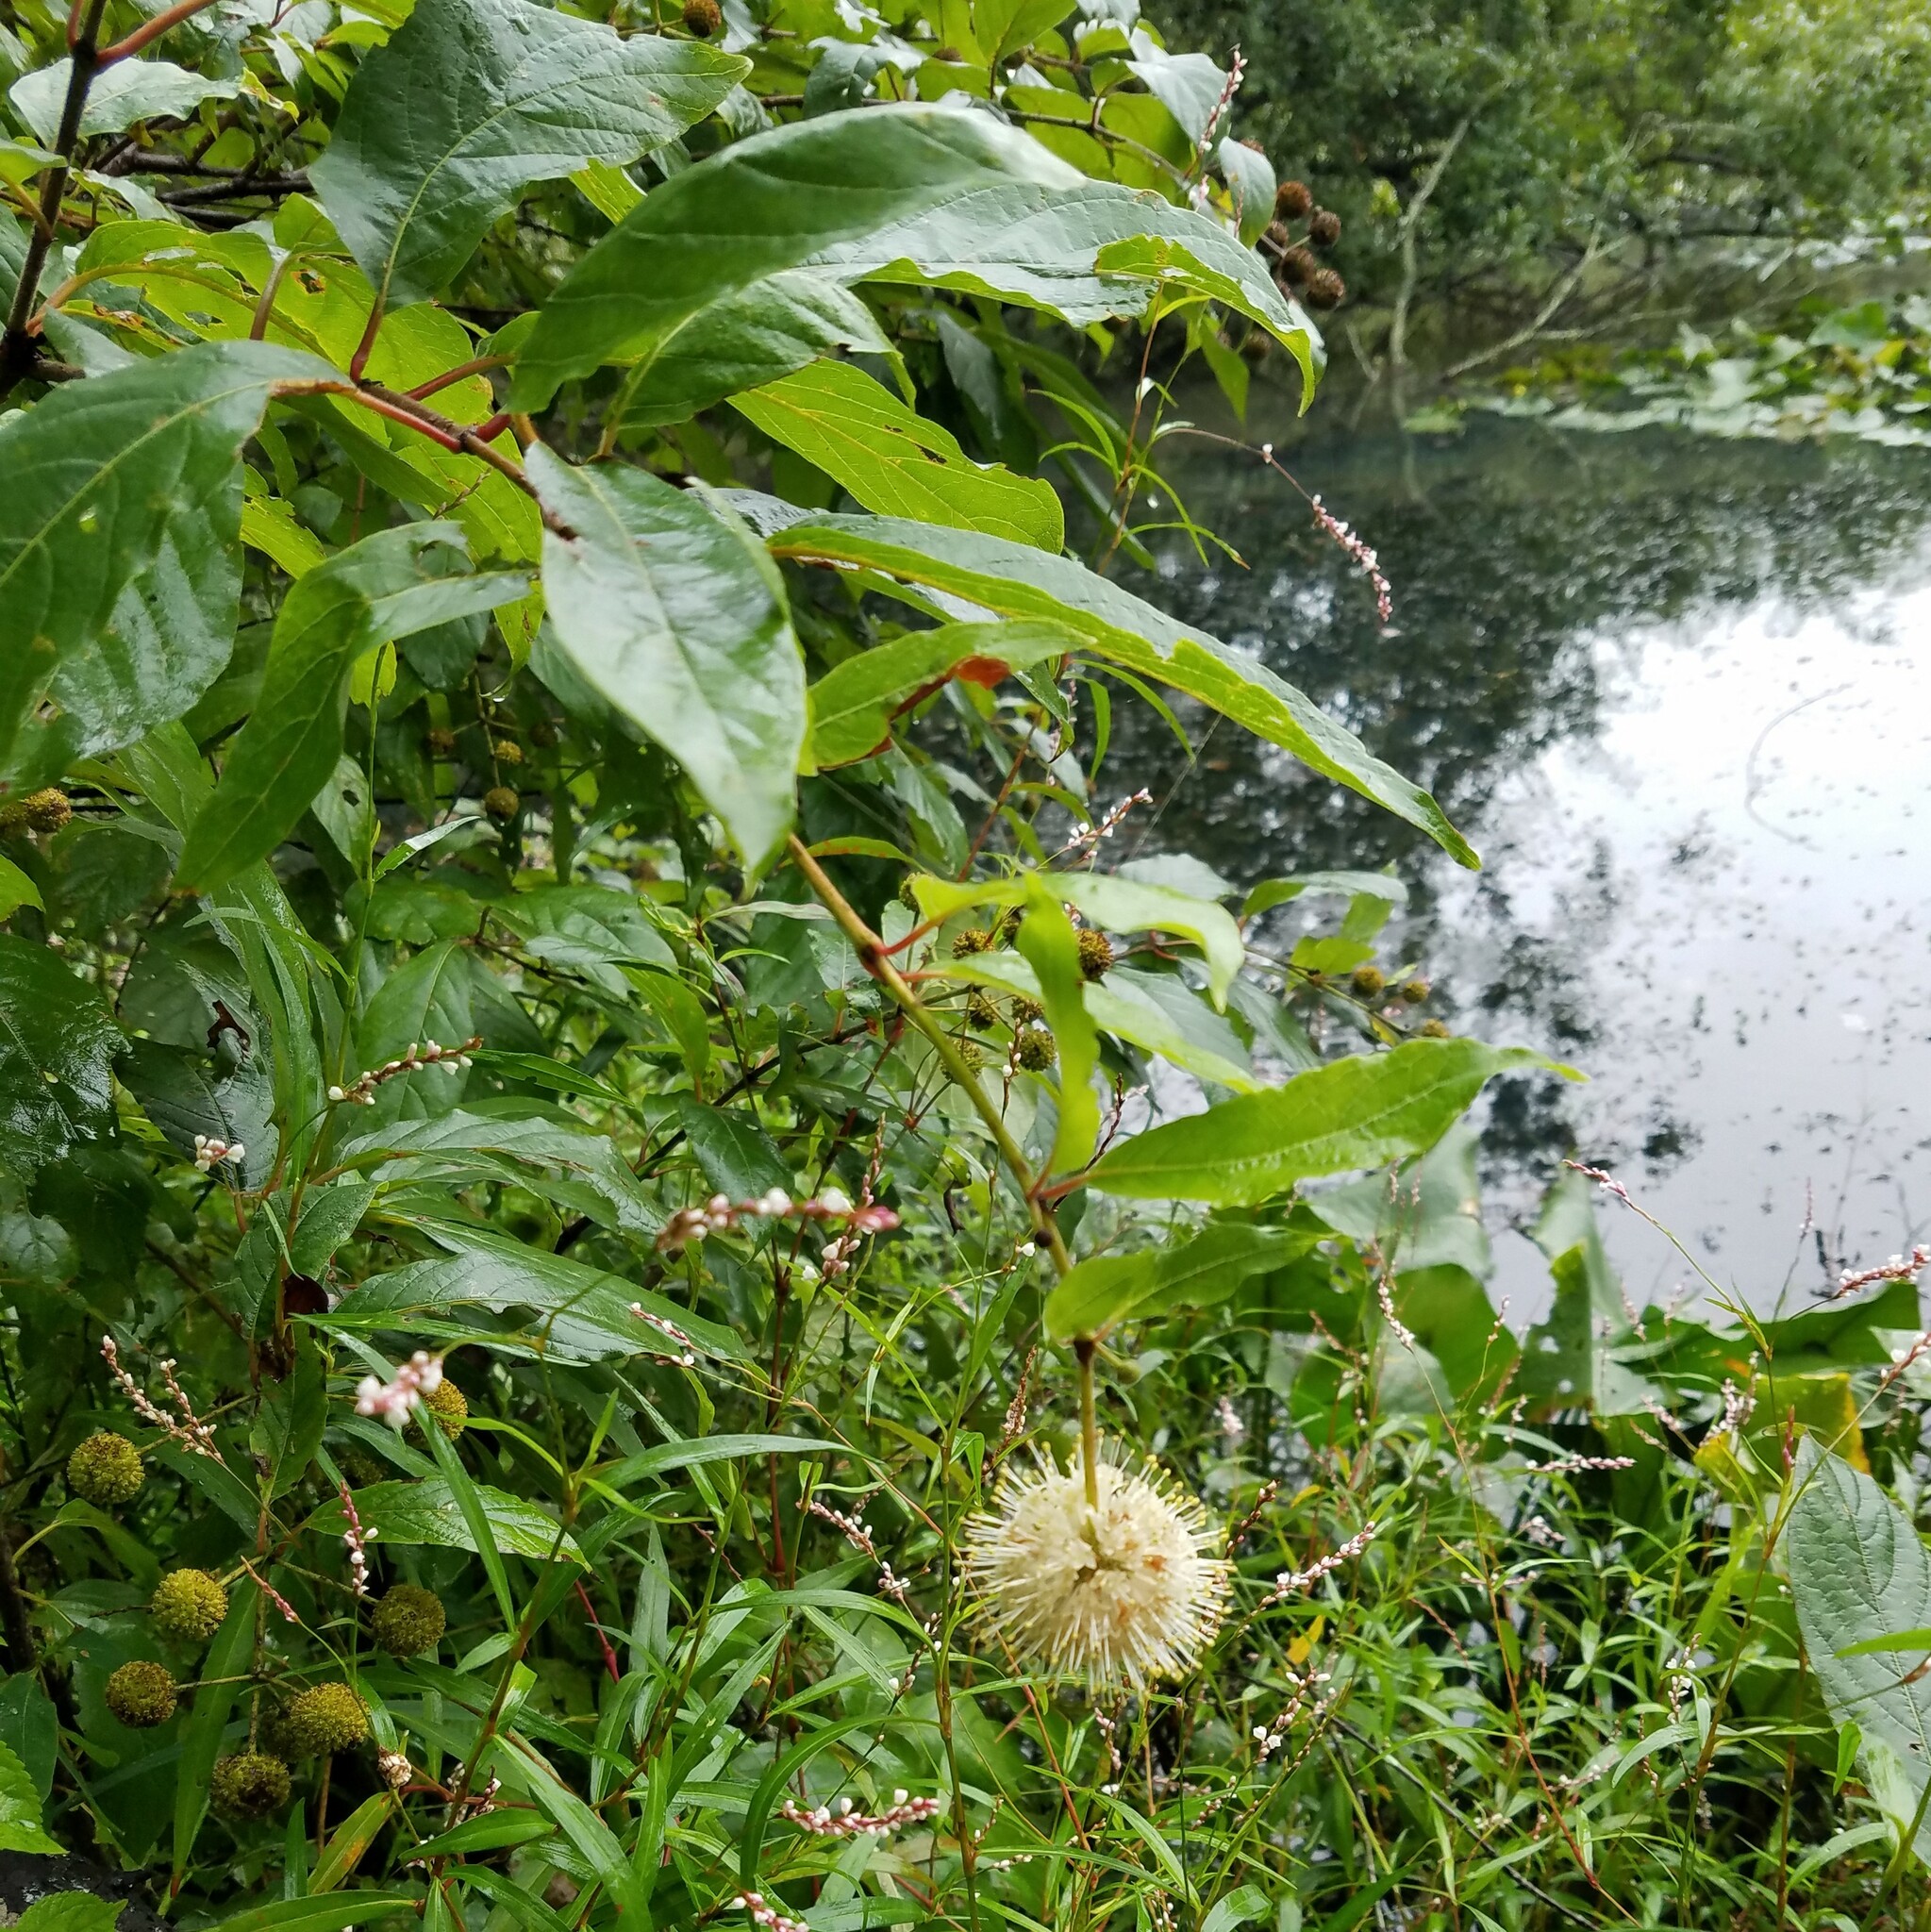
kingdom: Plantae
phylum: Tracheophyta
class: Magnoliopsida
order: Gentianales
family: Rubiaceae
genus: Cephalanthus
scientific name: Cephalanthus occidentalis
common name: Button-willow
